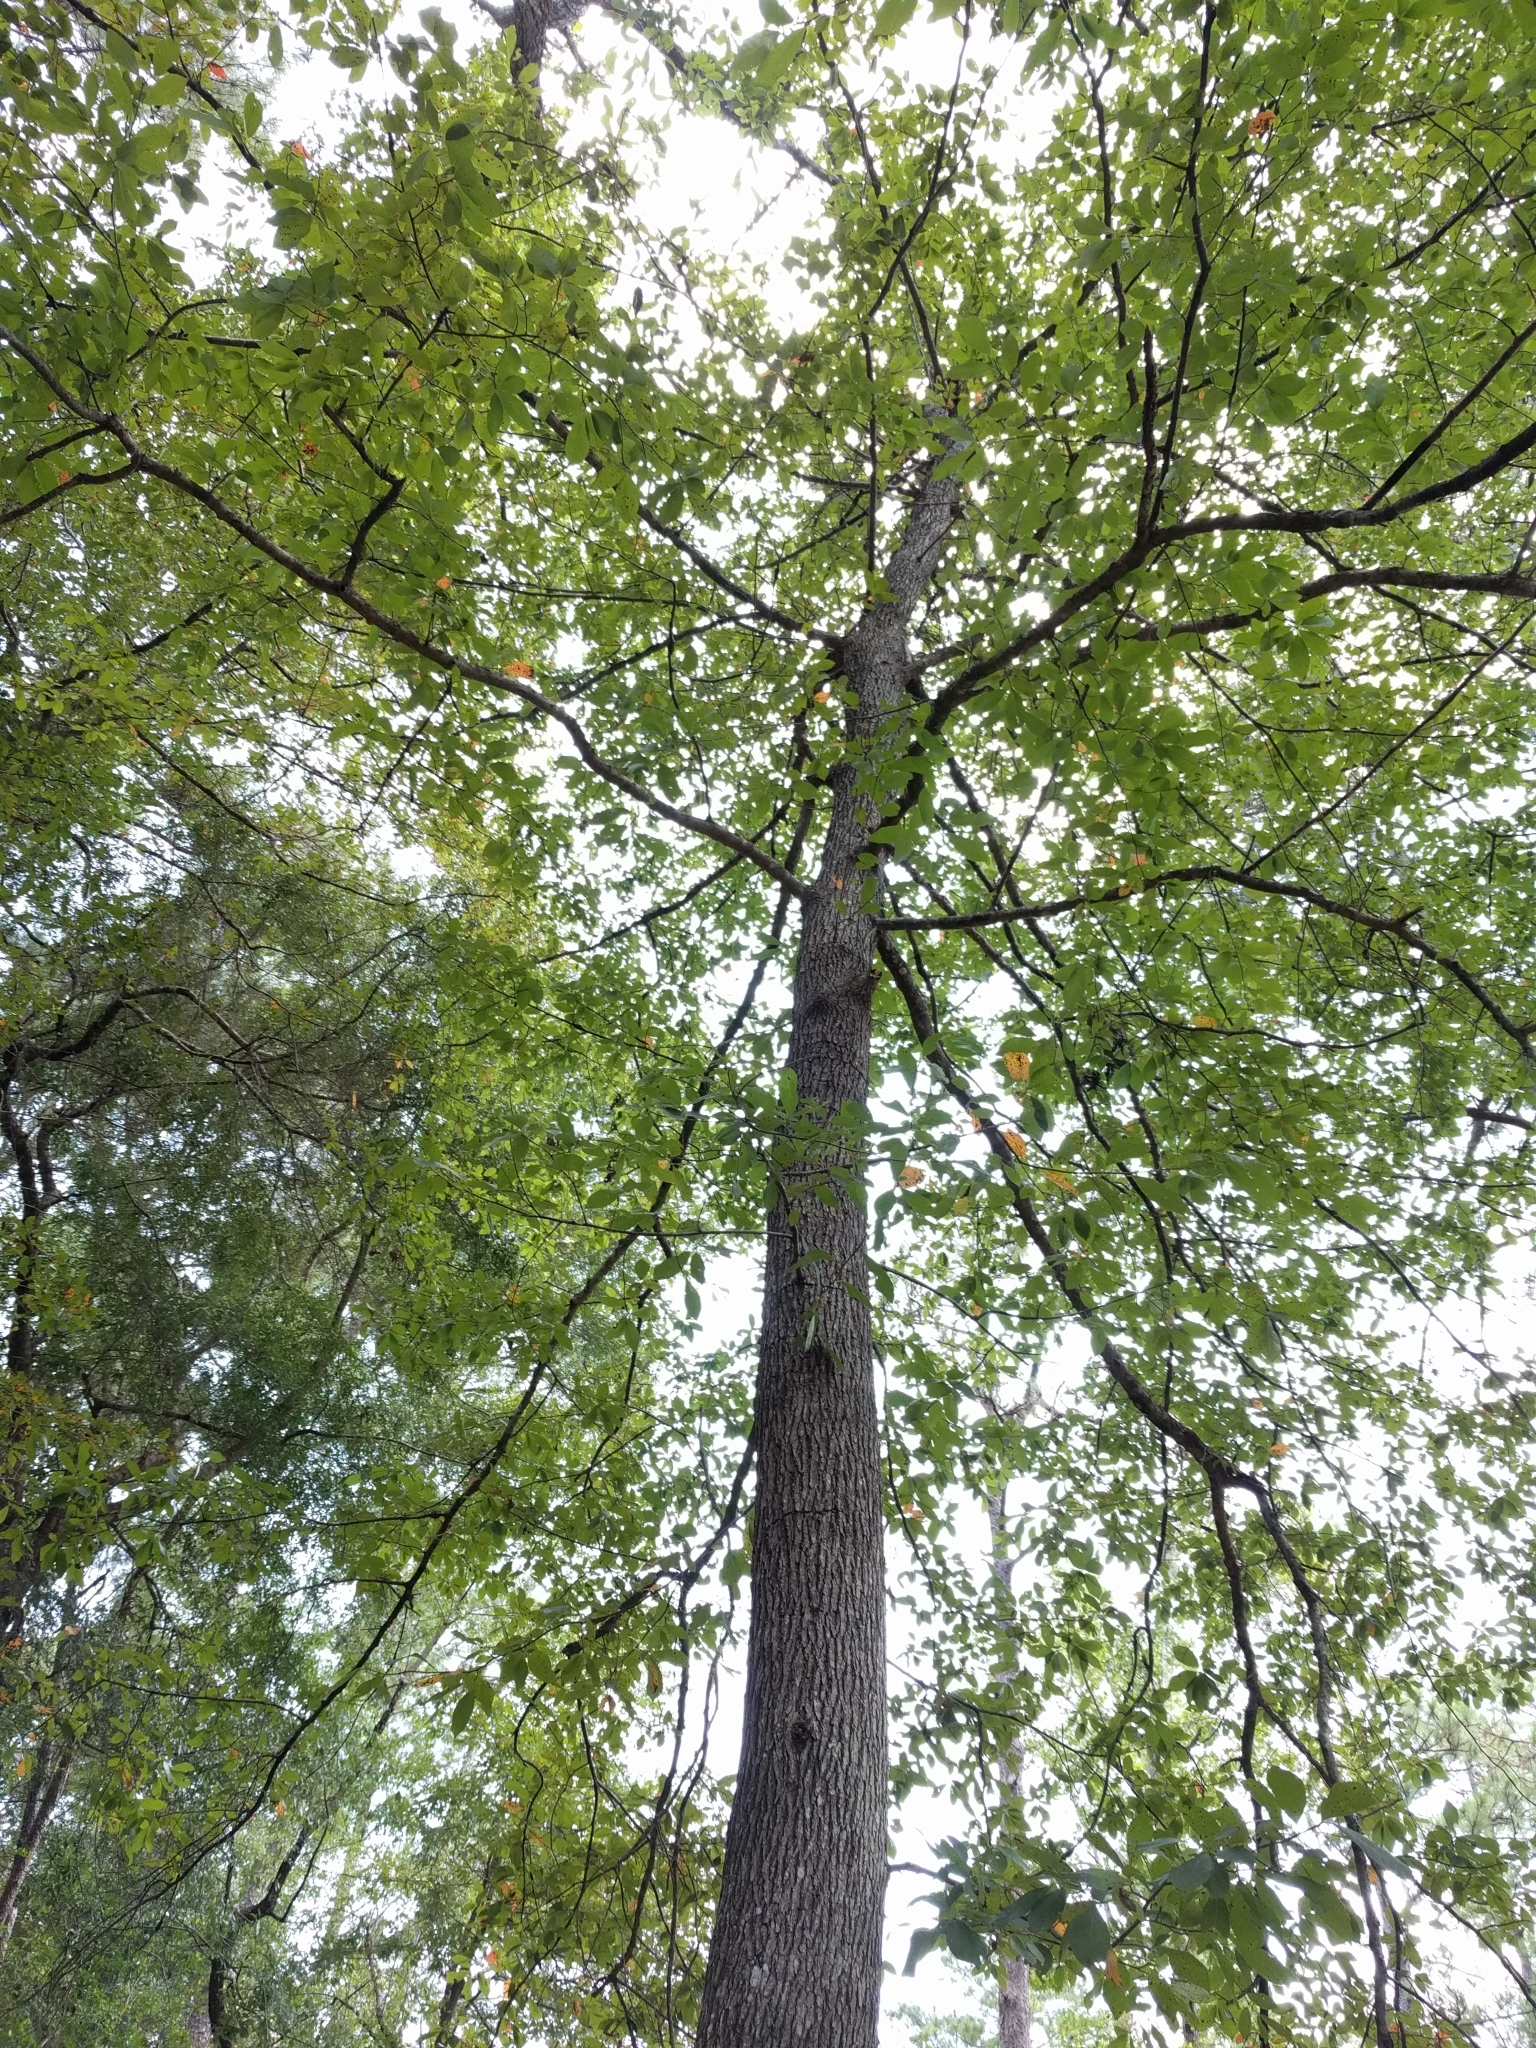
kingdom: Plantae
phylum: Tracheophyta
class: Magnoliopsida
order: Cornales
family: Nyssaceae
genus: Nyssa
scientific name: Nyssa sylvatica
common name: Black tupelo
